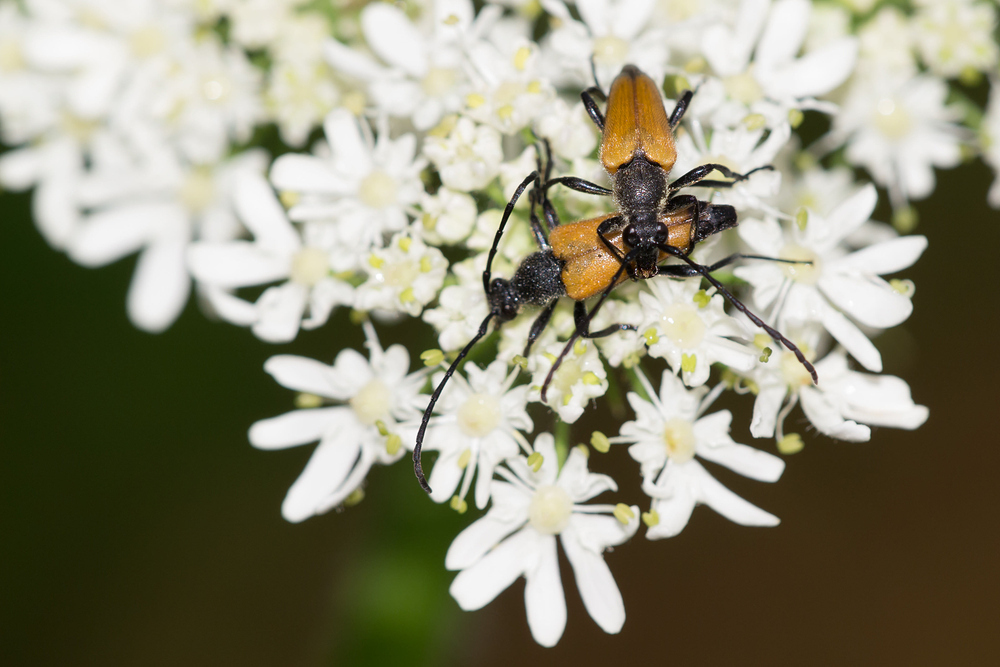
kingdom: Animalia
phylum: Arthropoda
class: Insecta
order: Coleoptera
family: Cerambycidae
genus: Paracorymbia
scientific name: Paracorymbia fulva
